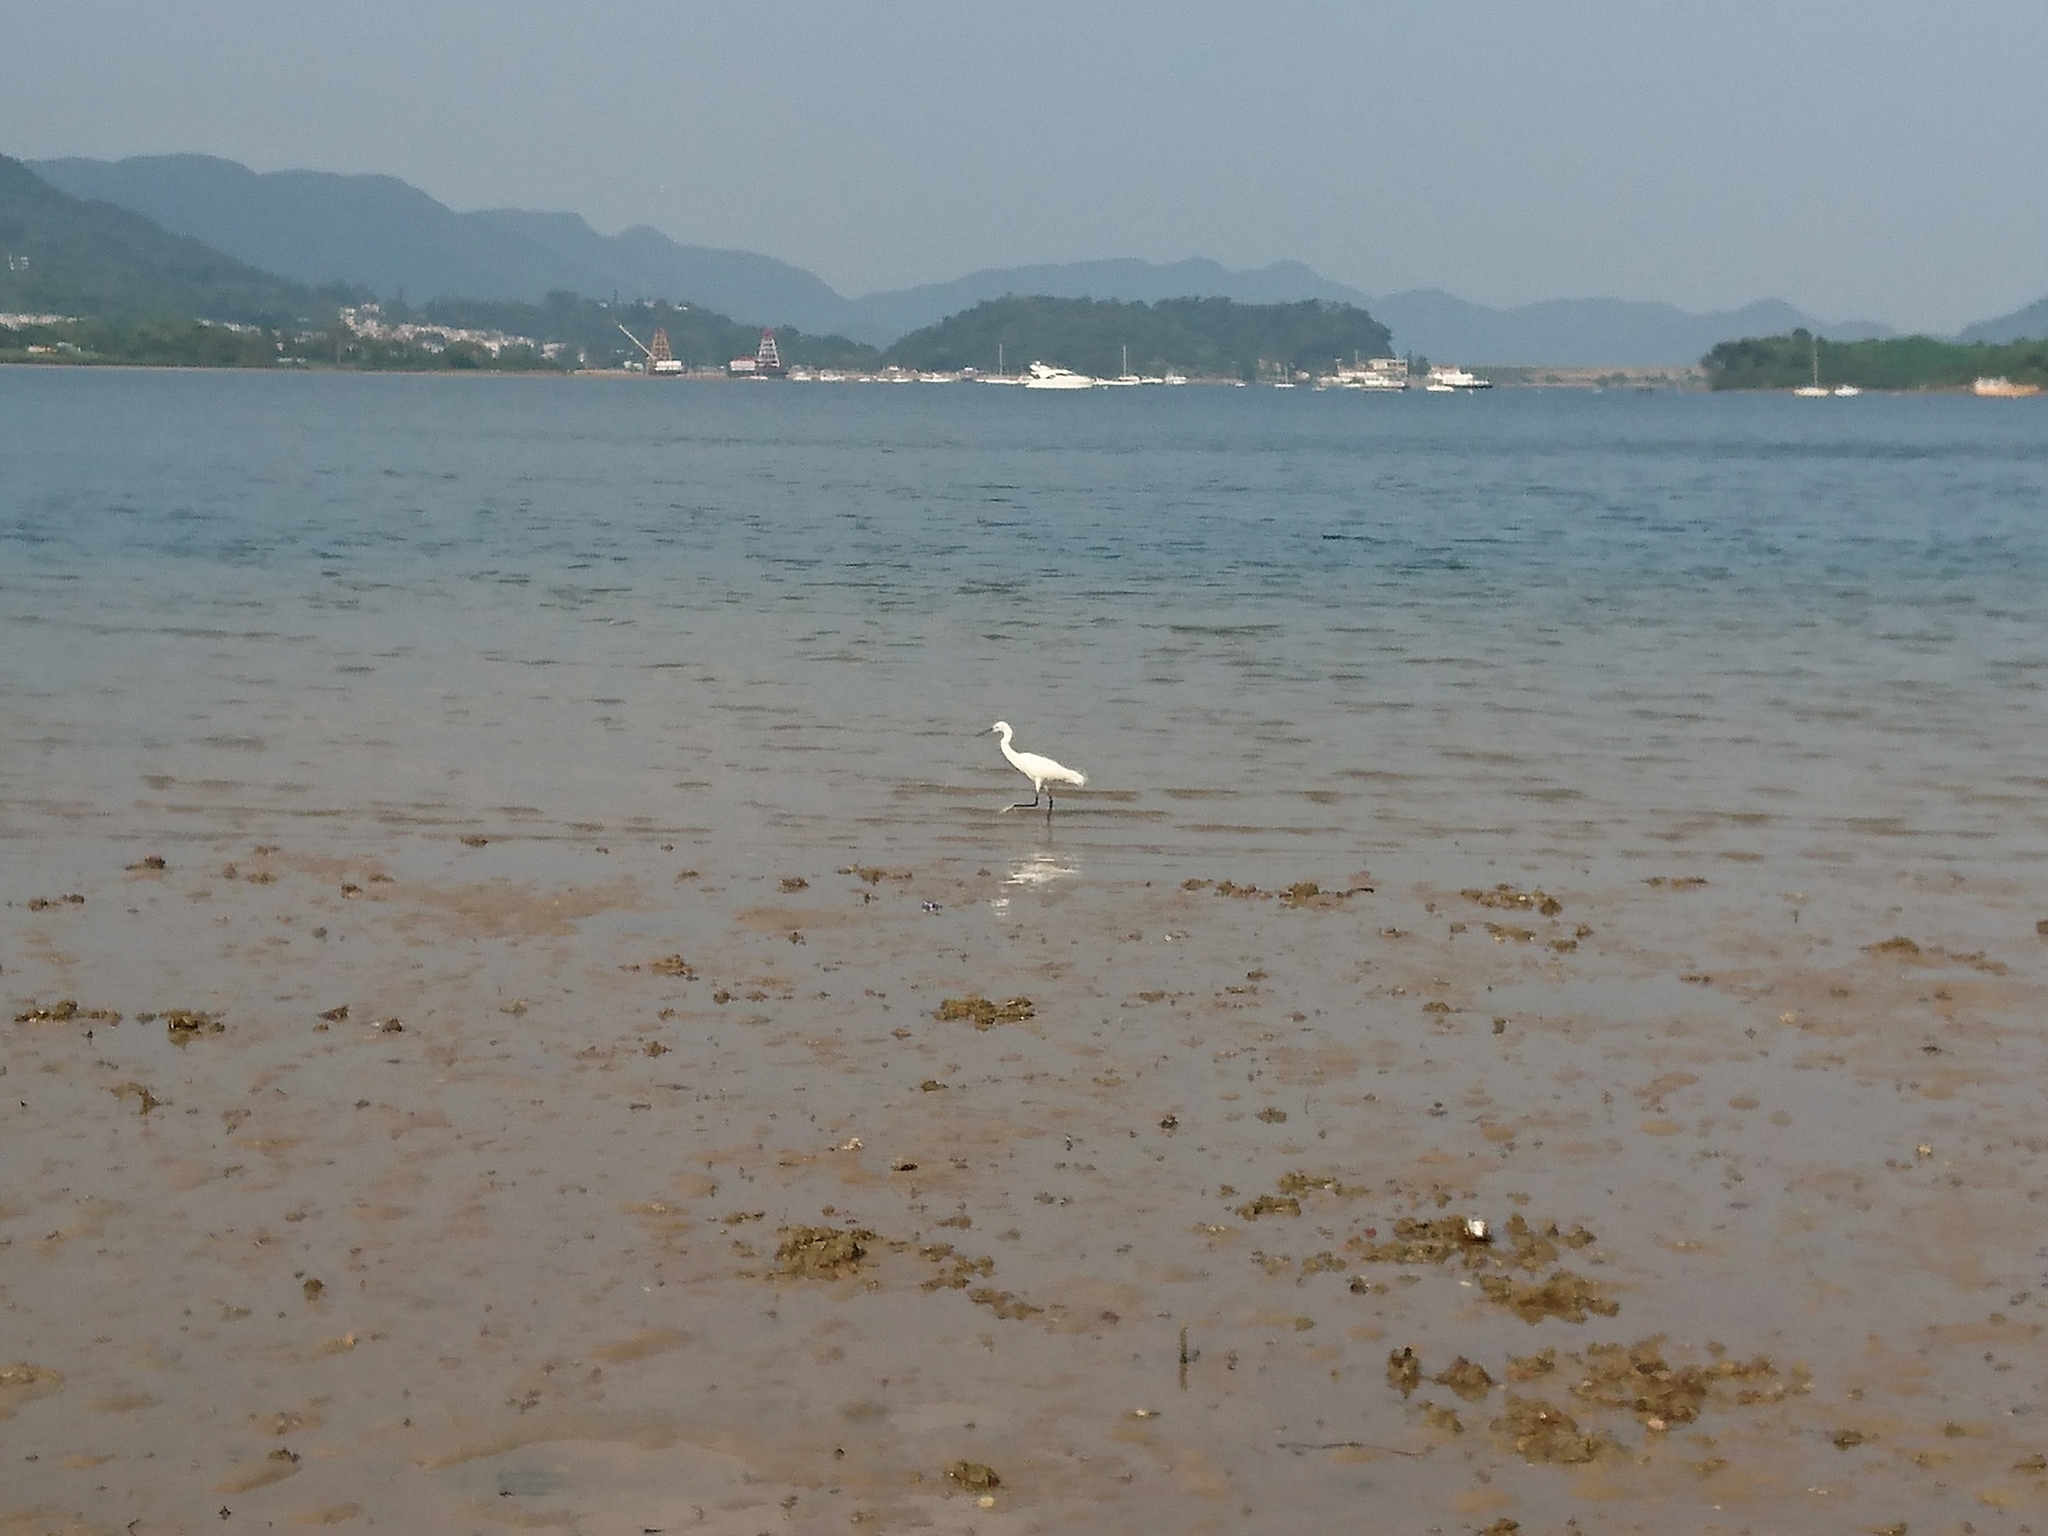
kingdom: Animalia
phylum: Chordata
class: Aves
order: Pelecaniformes
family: Ardeidae
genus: Egretta
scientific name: Egretta garzetta
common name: Little egret
